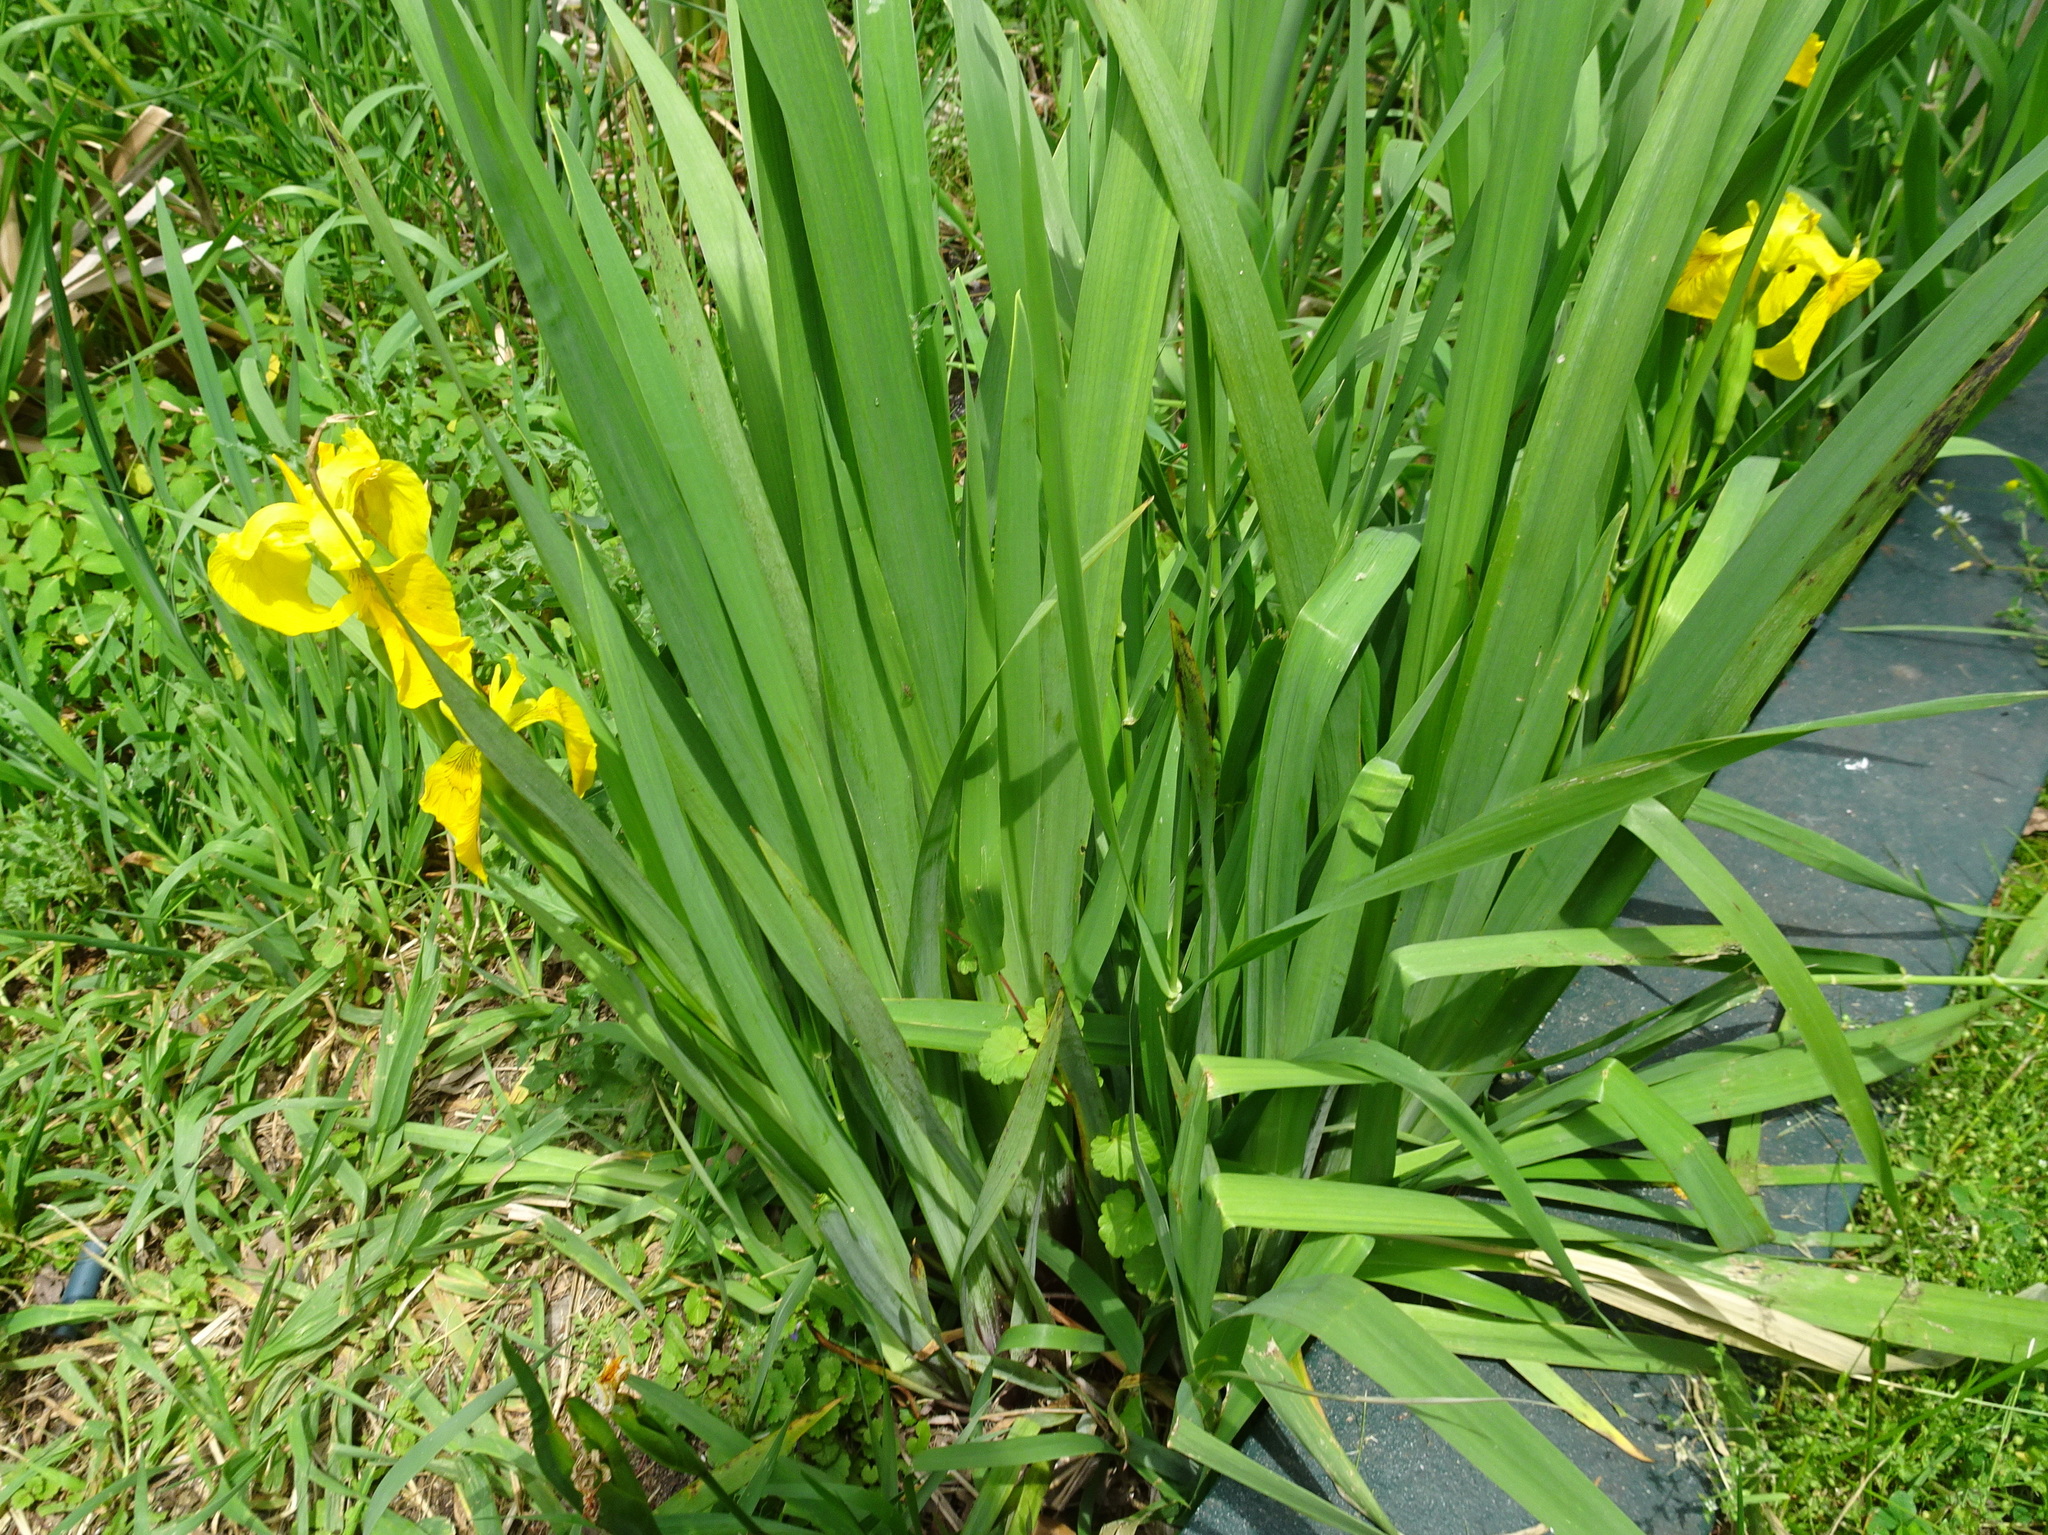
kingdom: Plantae
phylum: Tracheophyta
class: Liliopsida
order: Asparagales
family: Iridaceae
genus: Iris
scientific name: Iris pseudacorus
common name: Yellow flag
